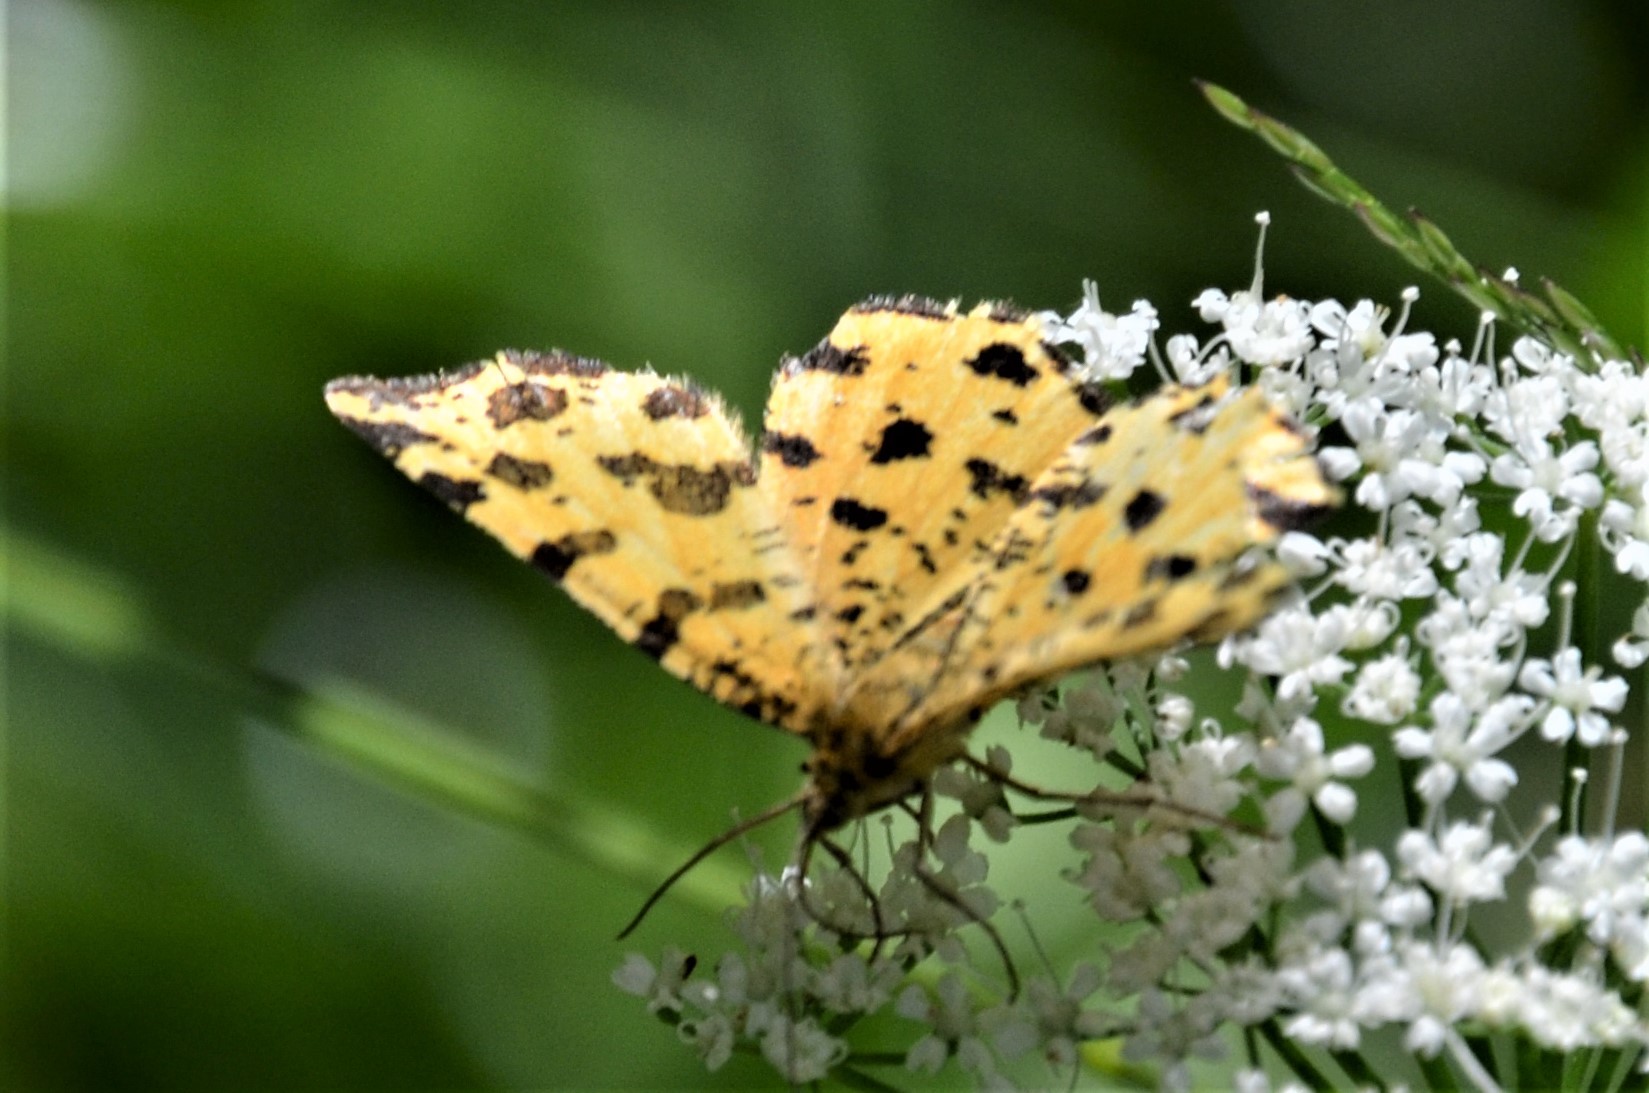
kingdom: Animalia
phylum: Arthropoda
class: Insecta
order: Lepidoptera
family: Geometridae
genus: Pseudopanthera
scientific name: Pseudopanthera macularia
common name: Speckled yellow
